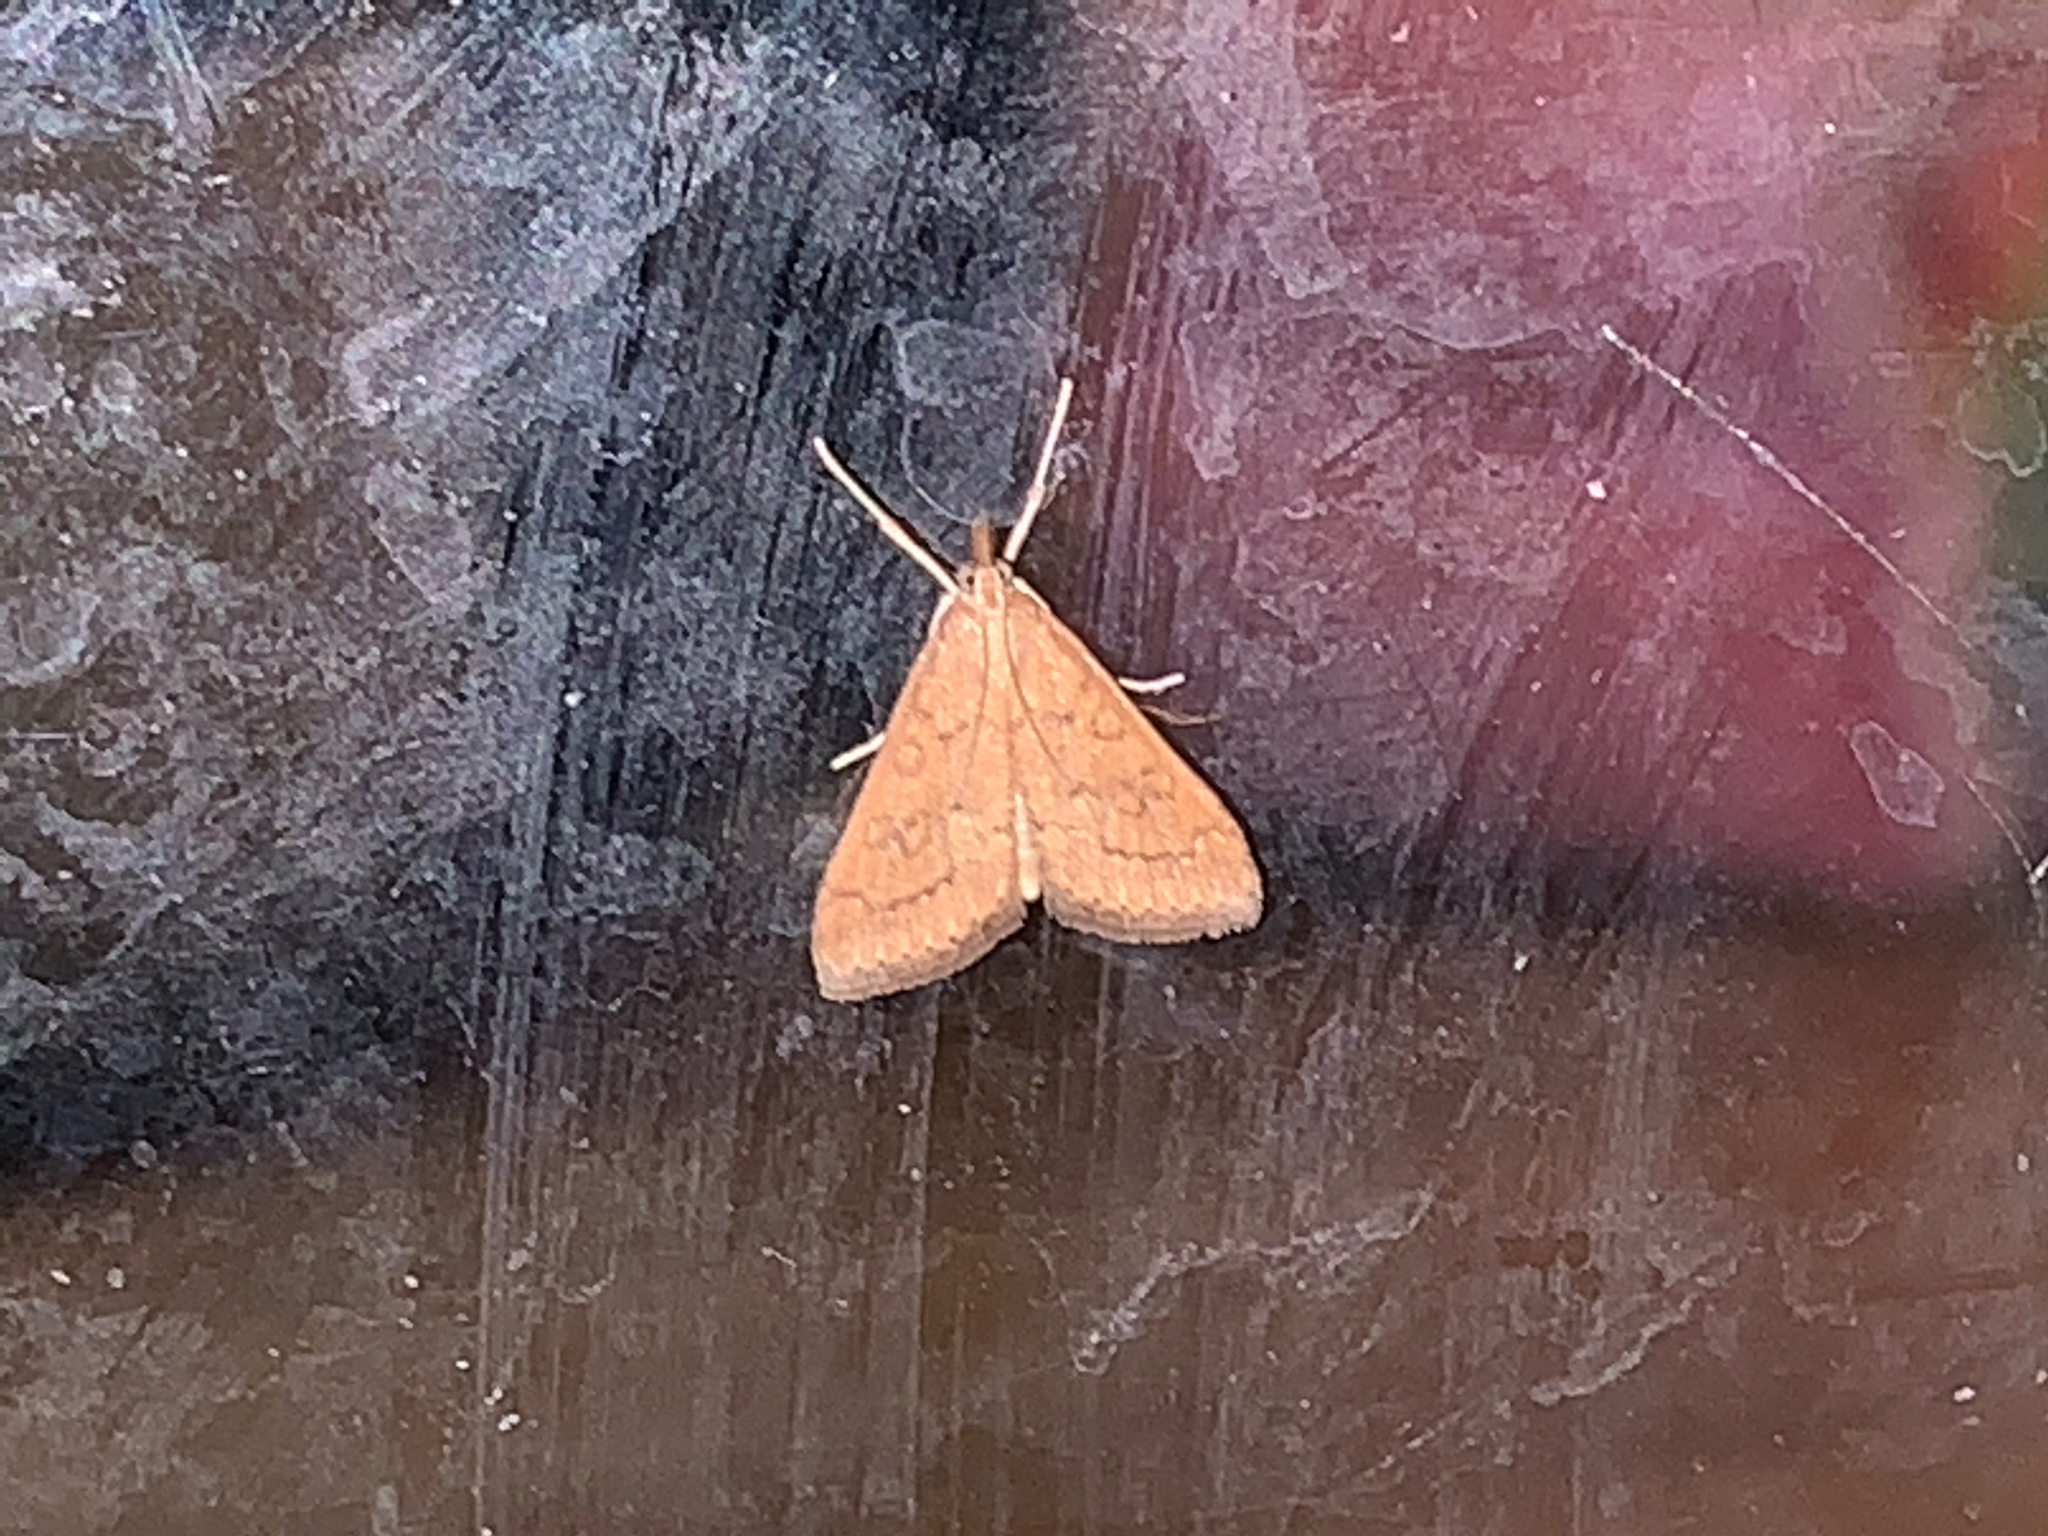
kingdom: Animalia
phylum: Arthropoda
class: Insecta
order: Lepidoptera
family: Crambidae
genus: Udea
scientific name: Udea rubigalis
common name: Celery leaftier moth
